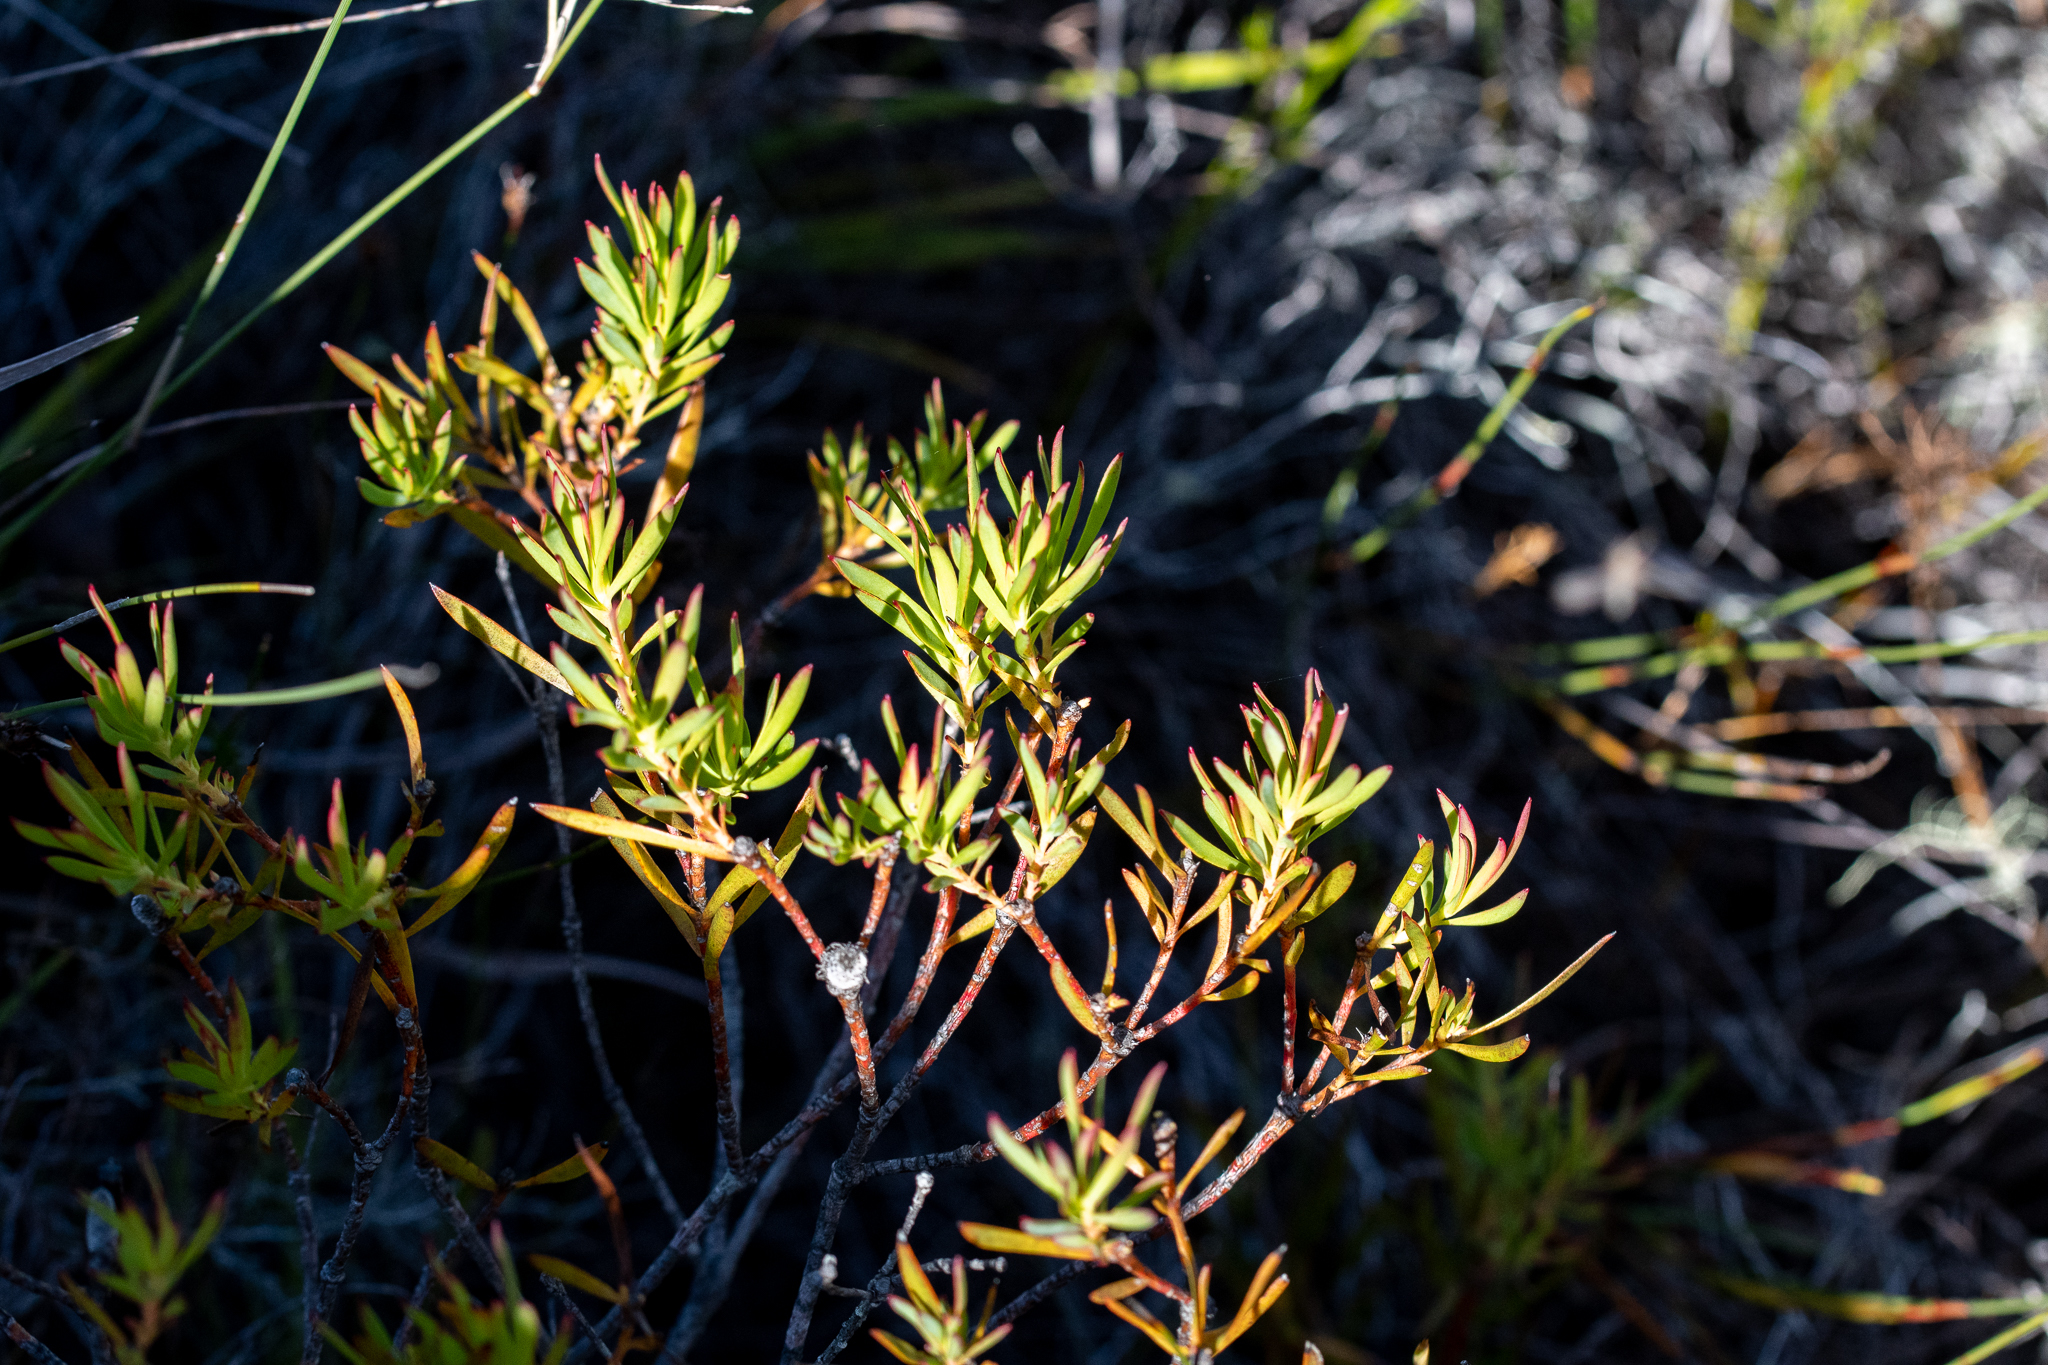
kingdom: Plantae
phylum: Tracheophyta
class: Magnoliopsida
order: Proteales
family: Proteaceae
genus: Leucadendron
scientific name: Leucadendron salignum
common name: Common sunshine conebush
